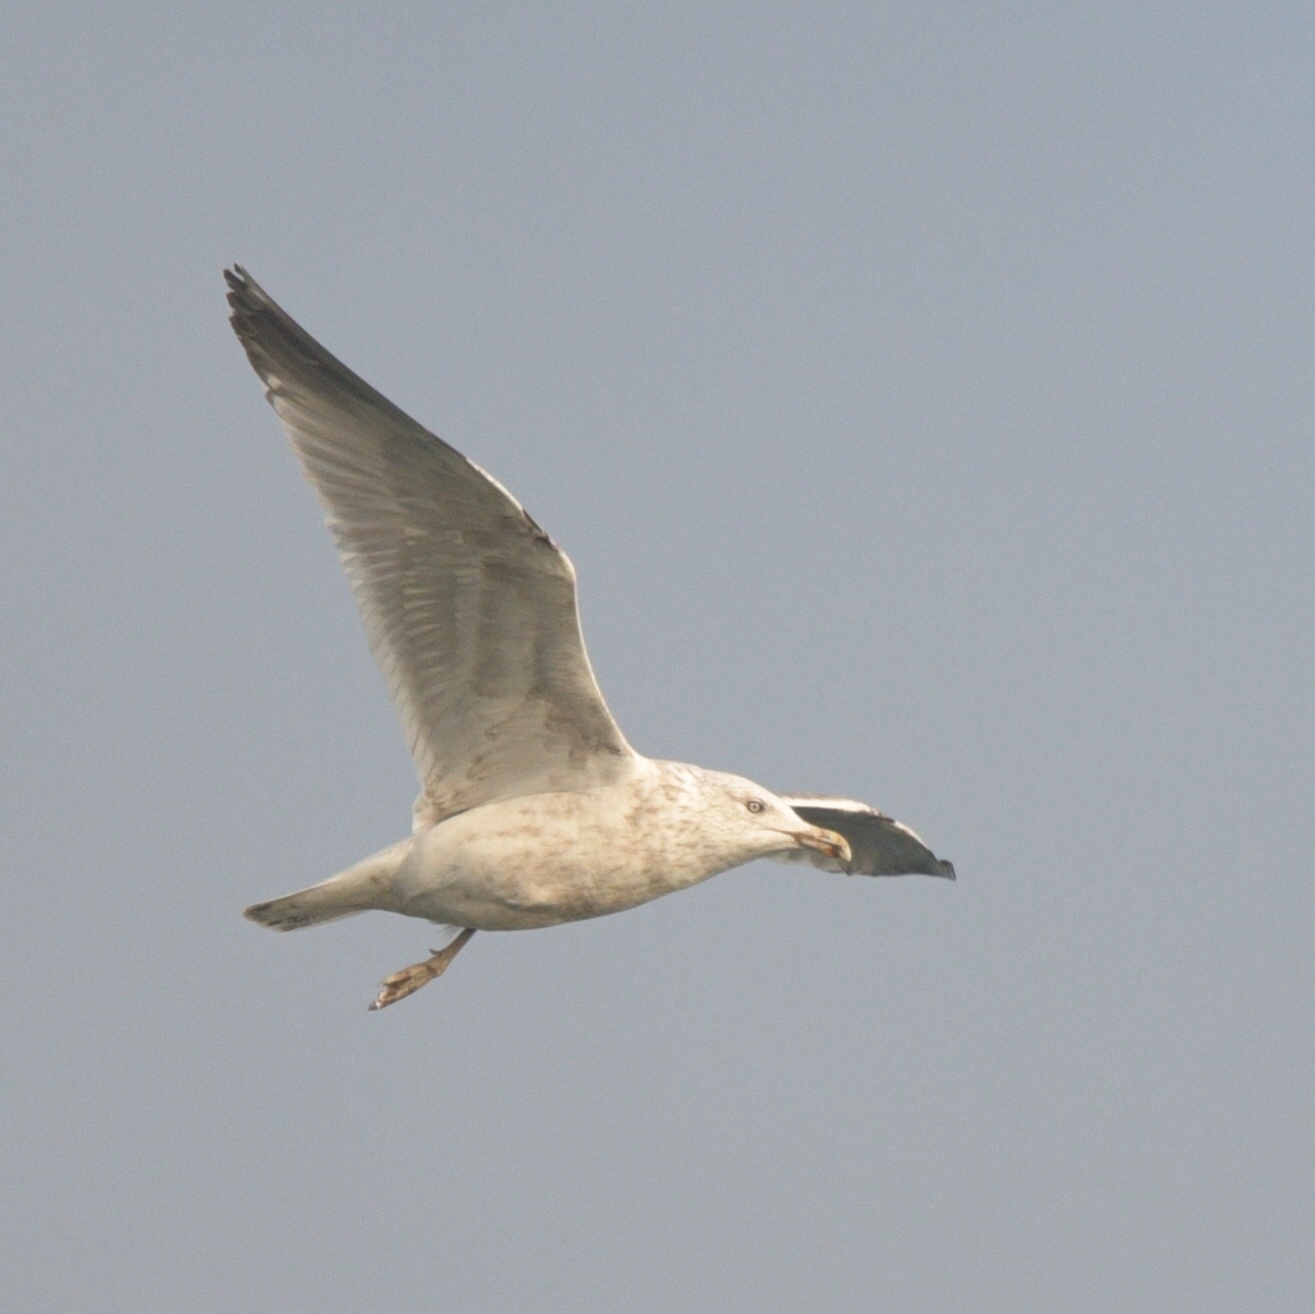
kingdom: Animalia
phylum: Chordata
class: Aves
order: Charadriiformes
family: Laridae
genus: Larus
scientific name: Larus argentatus
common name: Herring gull
